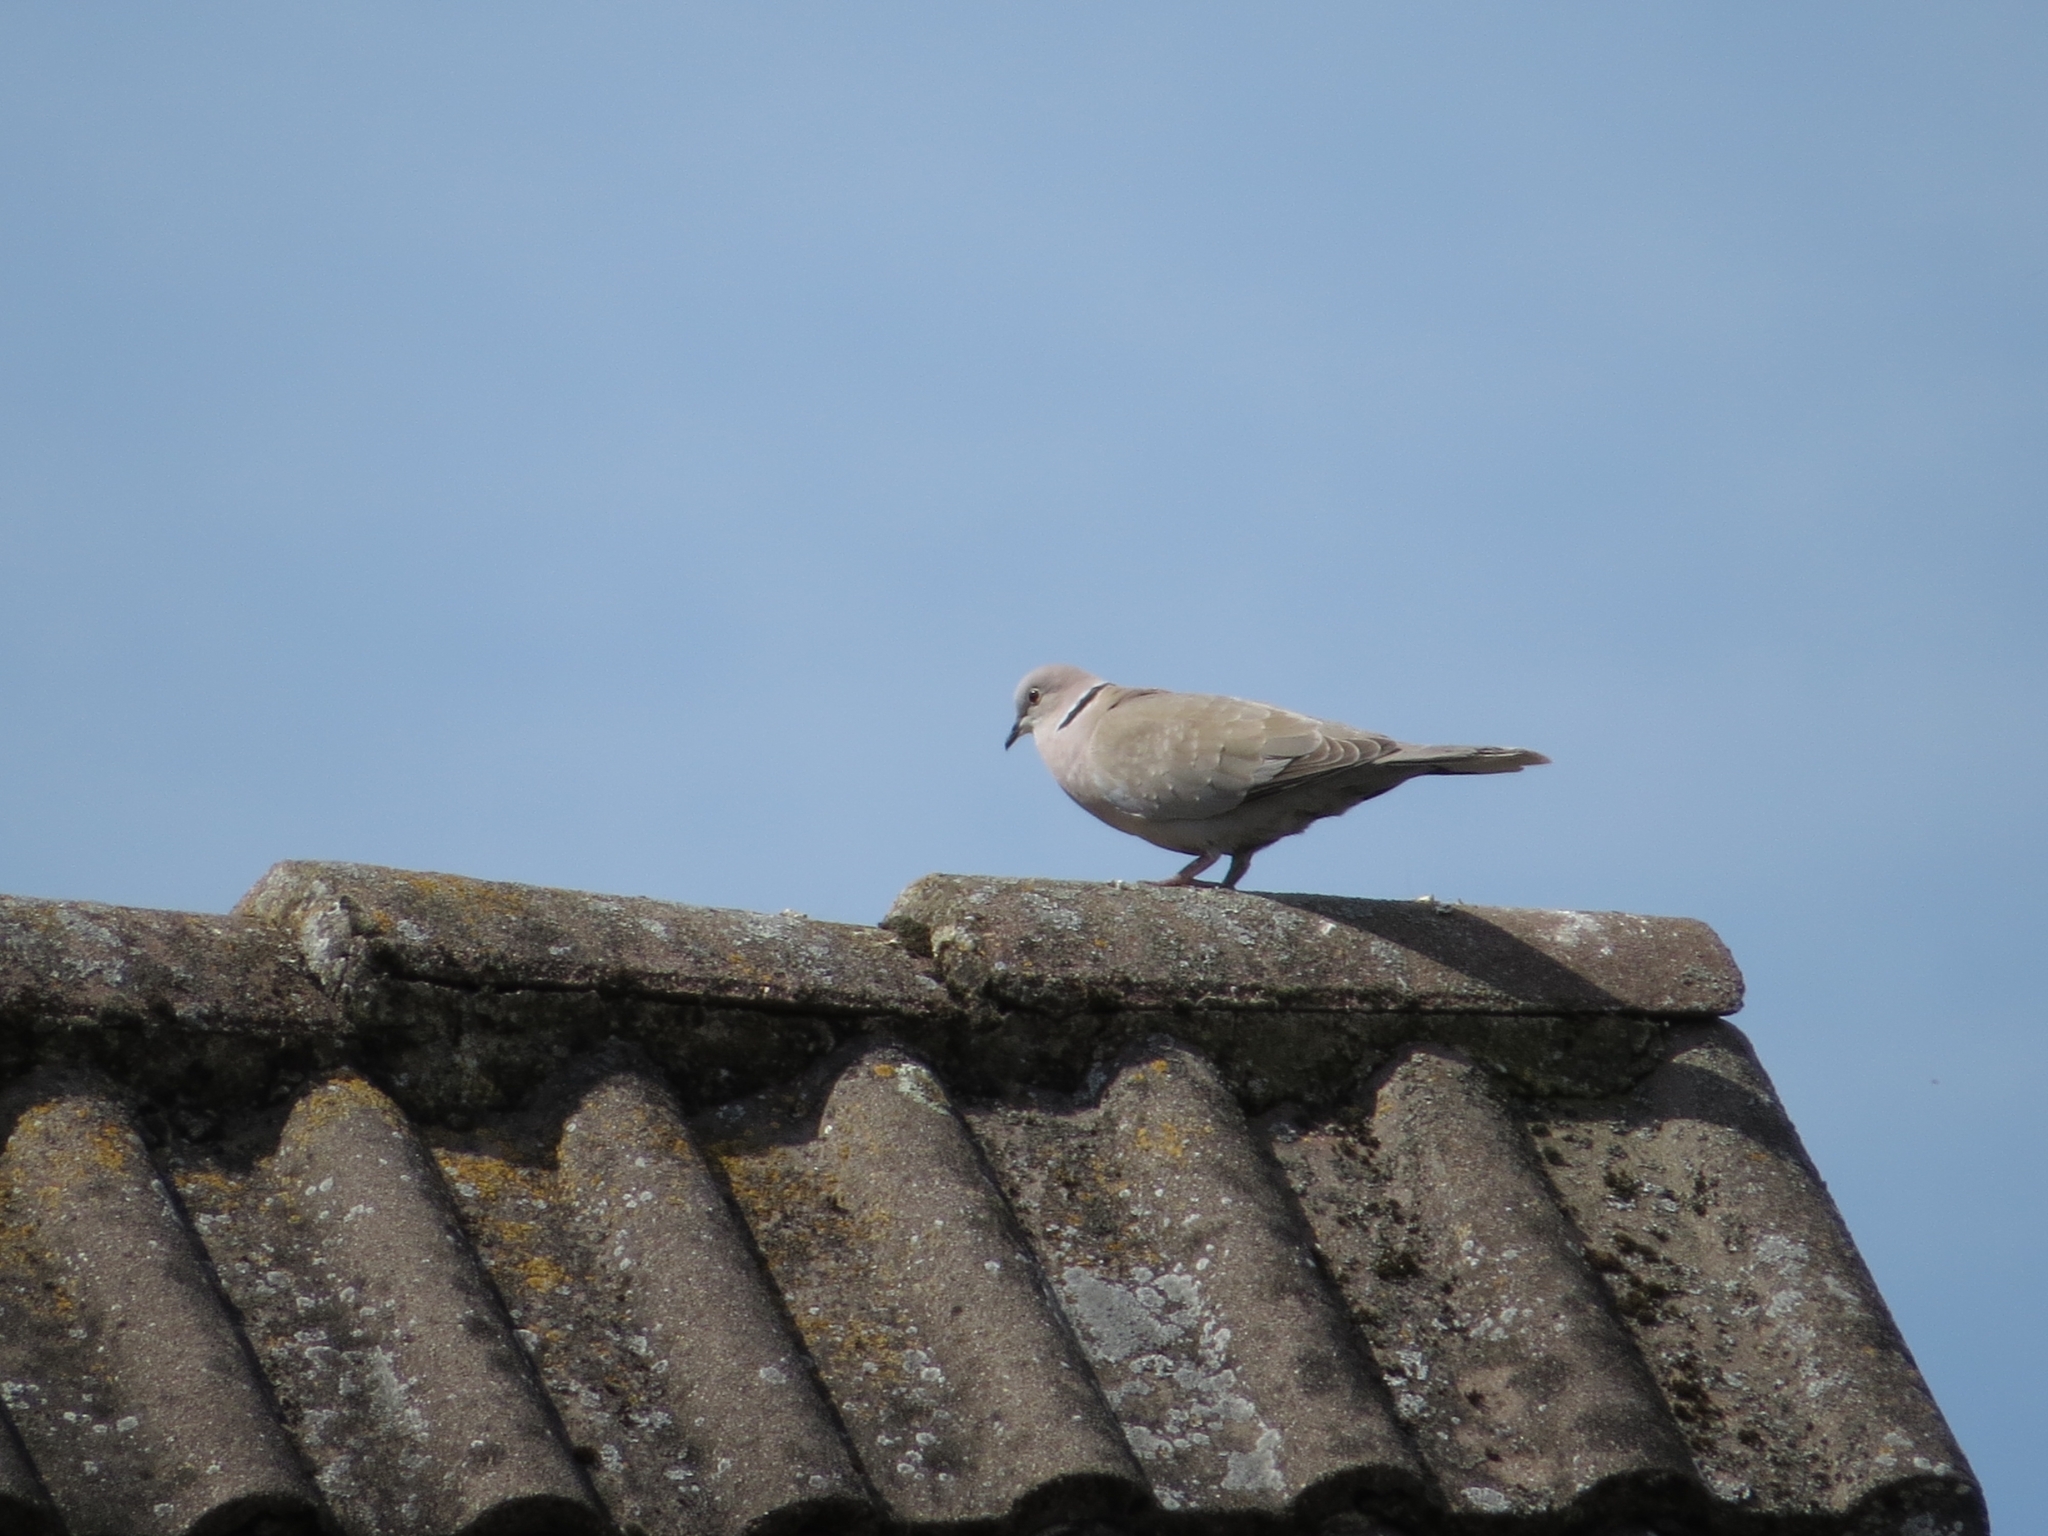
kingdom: Animalia
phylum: Chordata
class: Aves
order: Columbiformes
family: Columbidae
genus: Streptopelia
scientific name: Streptopelia decaocto
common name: Eurasian collared dove
